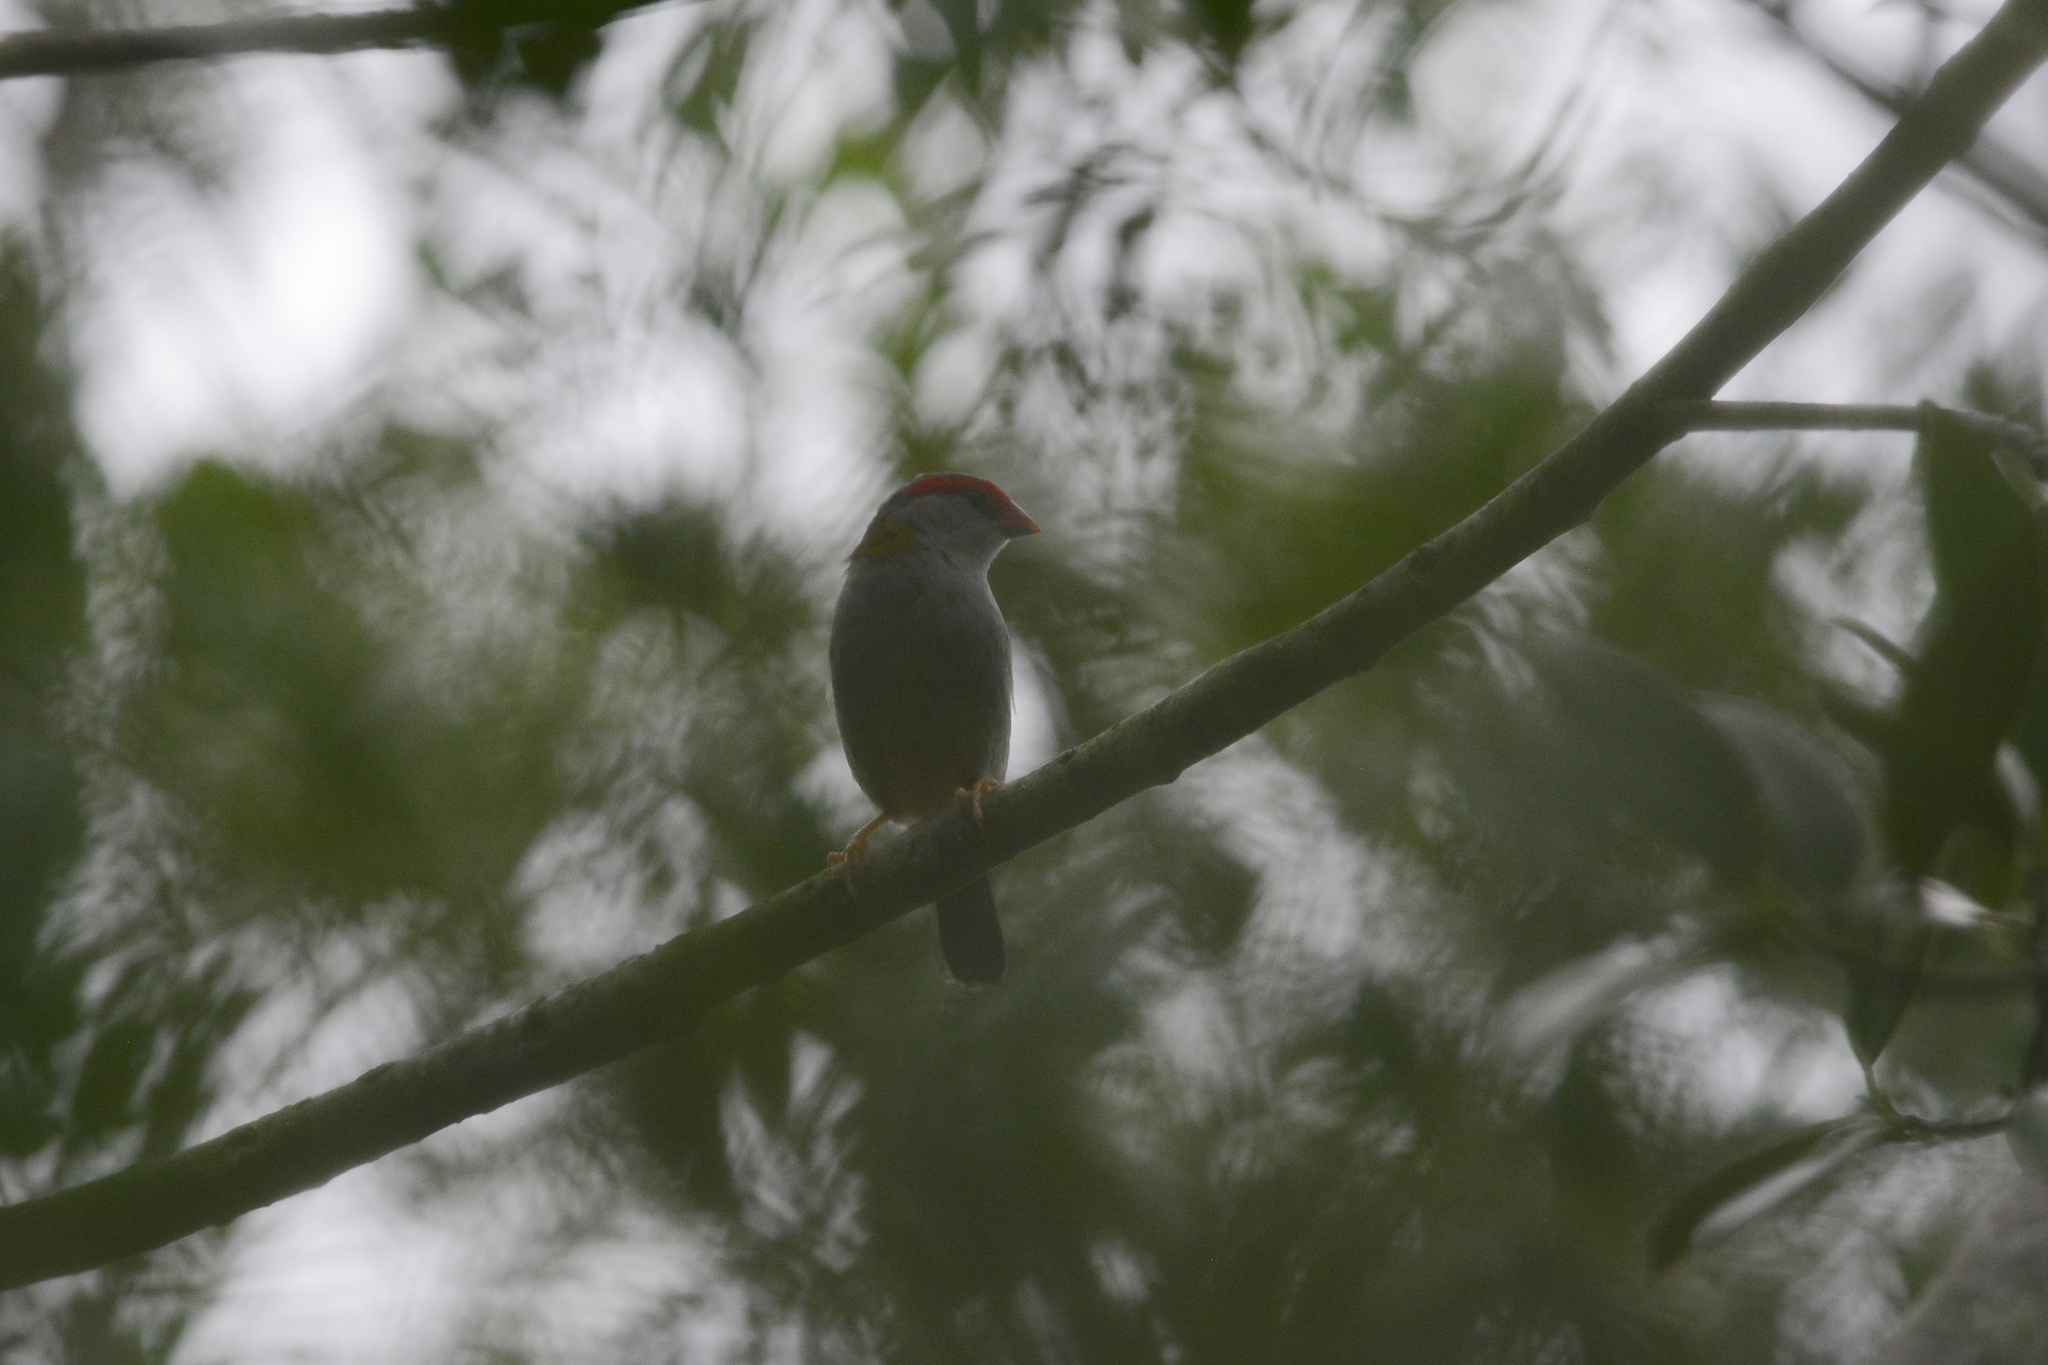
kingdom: Animalia
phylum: Chordata
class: Aves
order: Passeriformes
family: Estrildidae
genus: Neochmia
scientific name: Neochmia temporalis
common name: Red-browed finch
